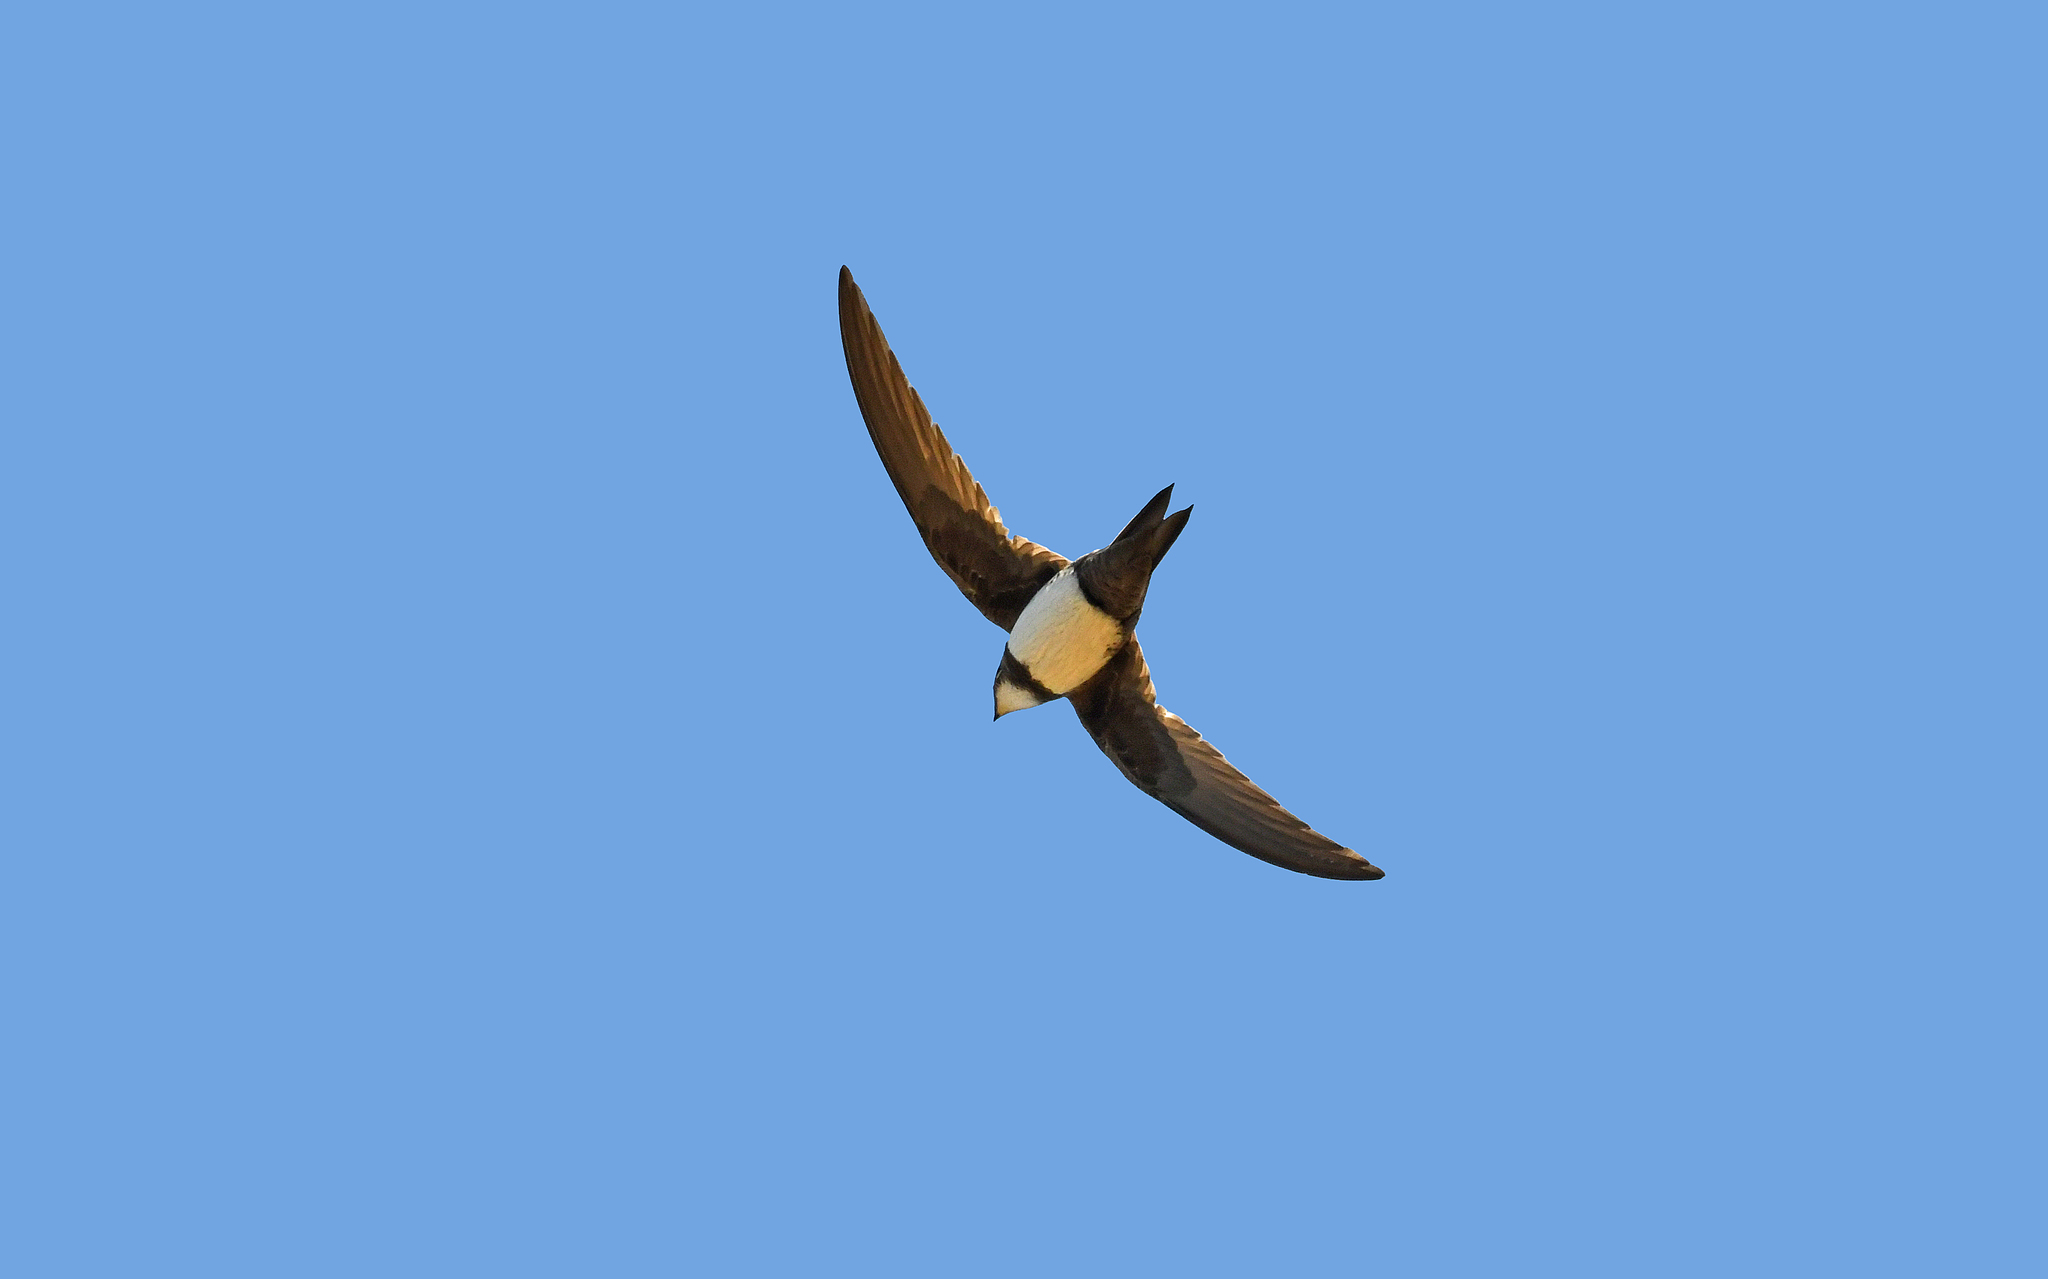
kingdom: Animalia
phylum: Chordata
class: Aves
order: Apodiformes
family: Apodidae
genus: Tachymarptis
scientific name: Tachymarptis melba
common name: Alpine swift
